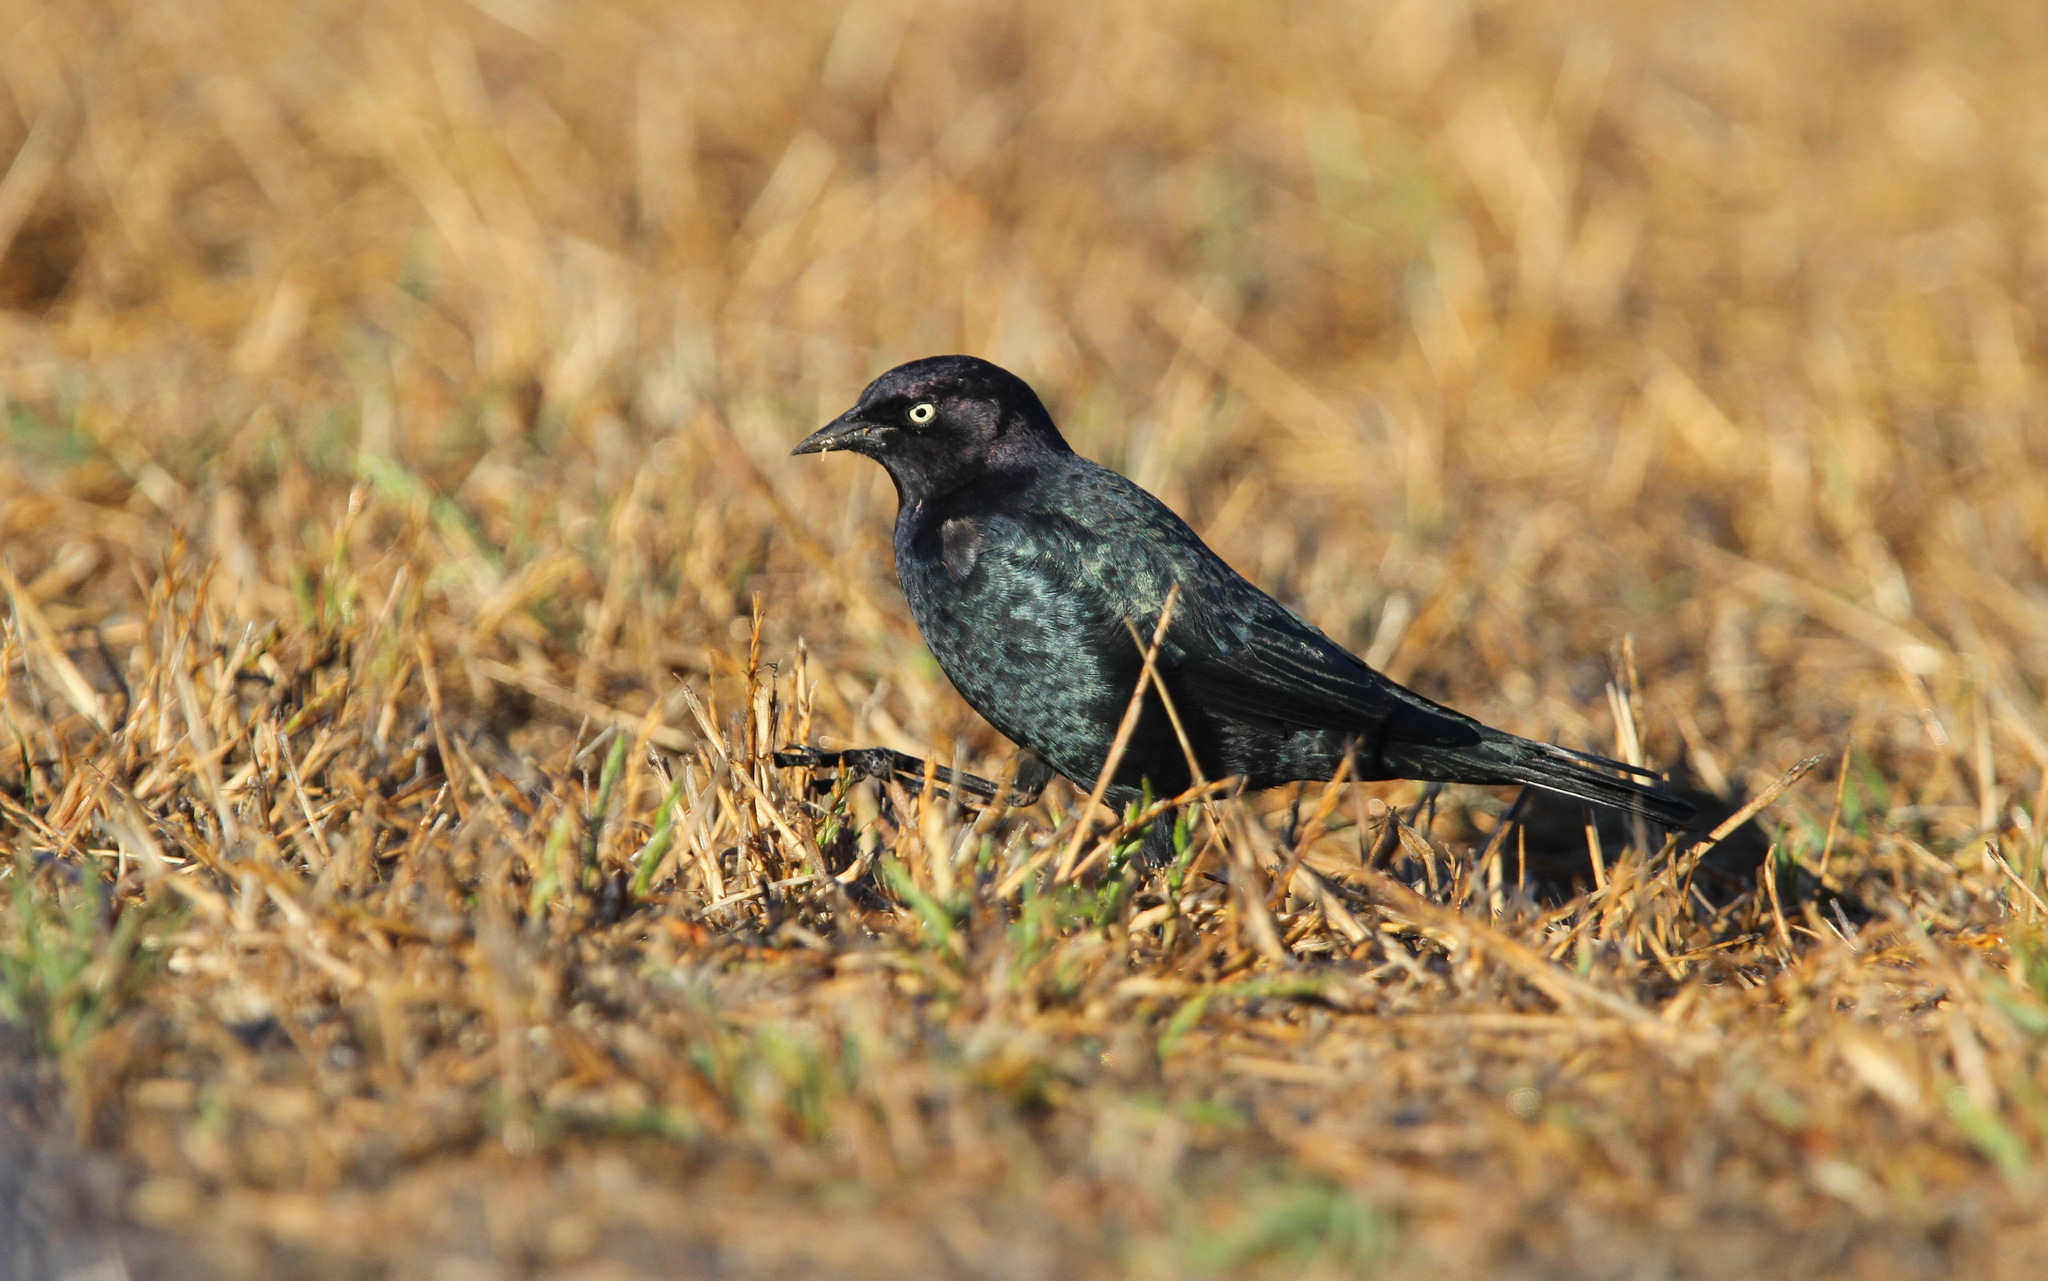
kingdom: Animalia
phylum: Chordata
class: Aves
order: Passeriformes
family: Icteridae
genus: Euphagus
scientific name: Euphagus cyanocephalus
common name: Brewer's blackbird
